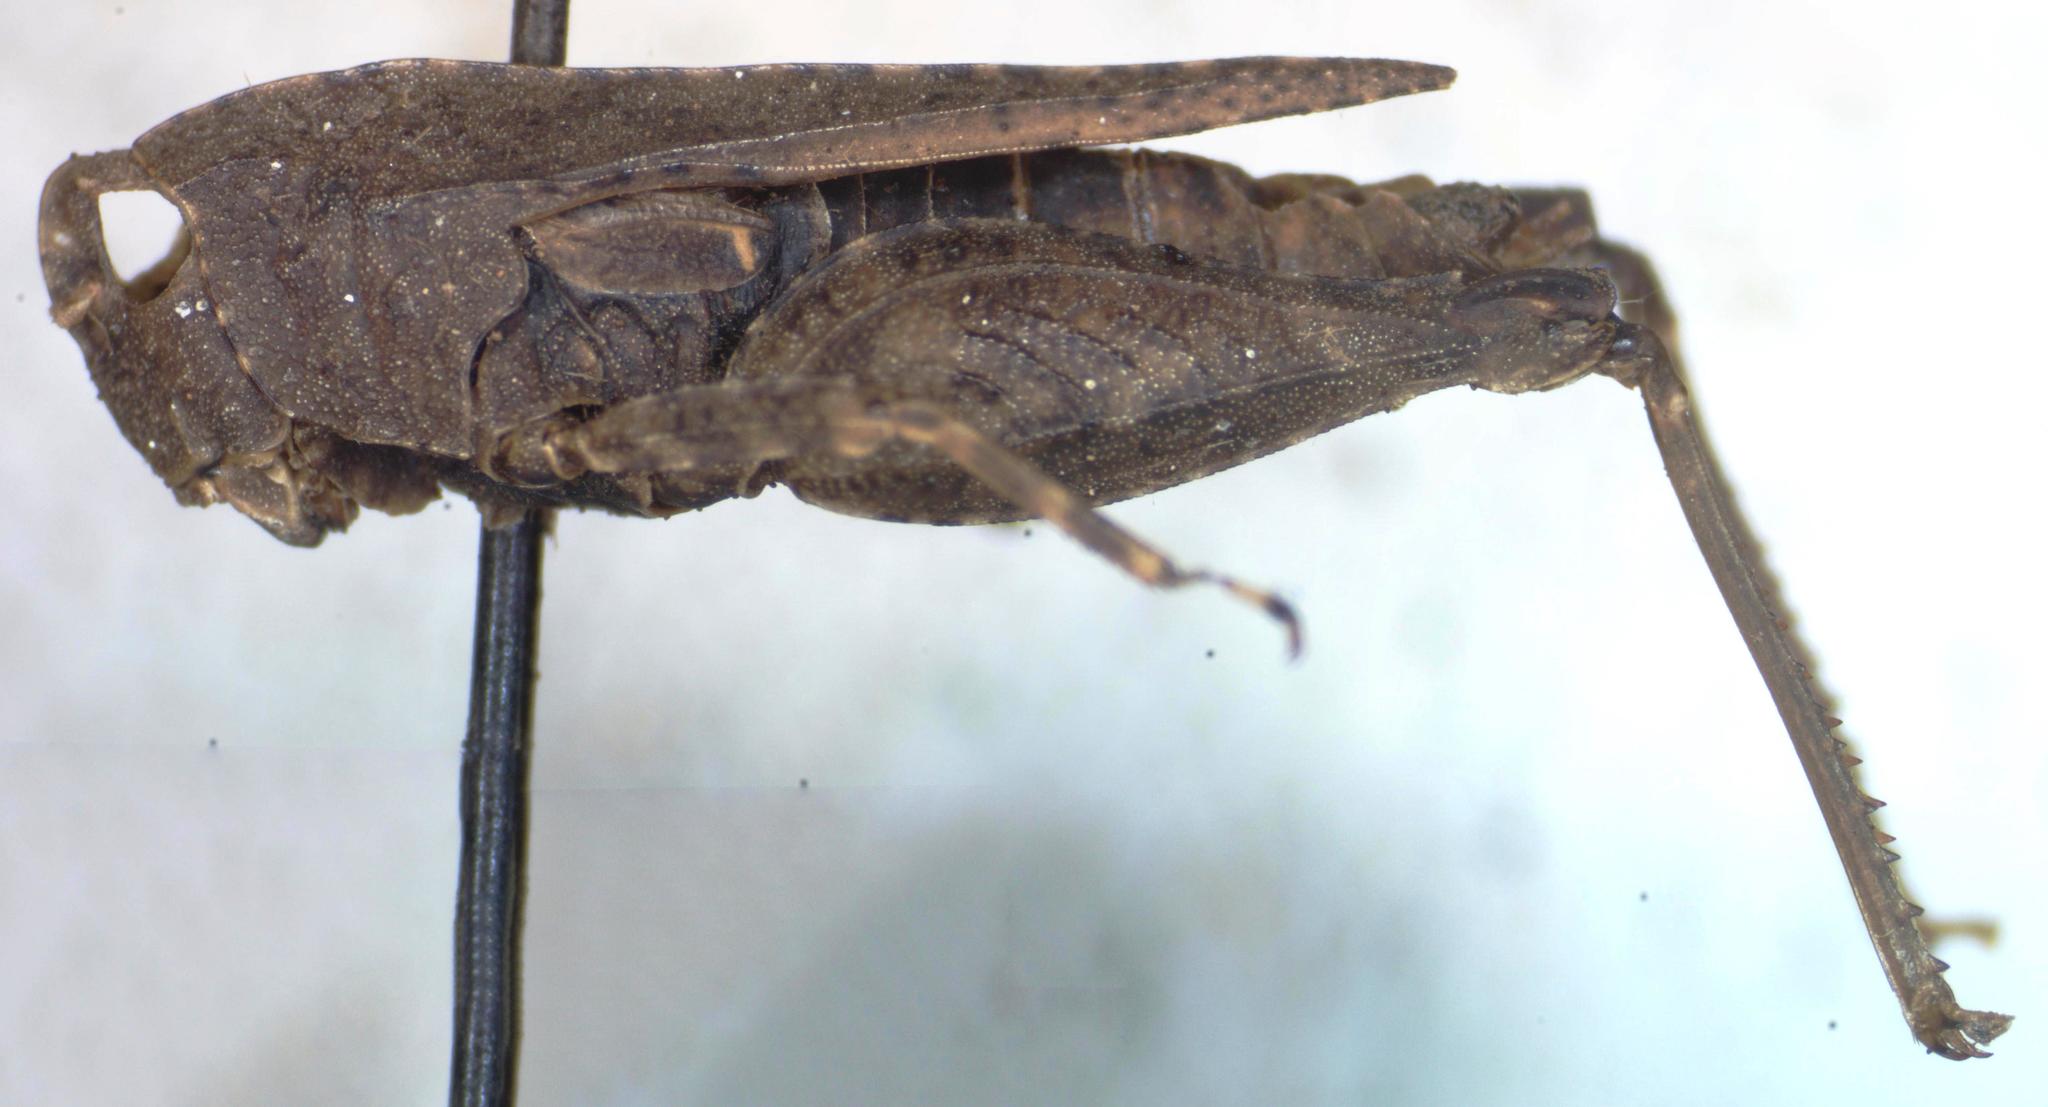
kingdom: Animalia
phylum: Arthropoda
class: Insecta
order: Orthoptera
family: Tetrigidae
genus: Tettigidea
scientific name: Tettigidea laterale
